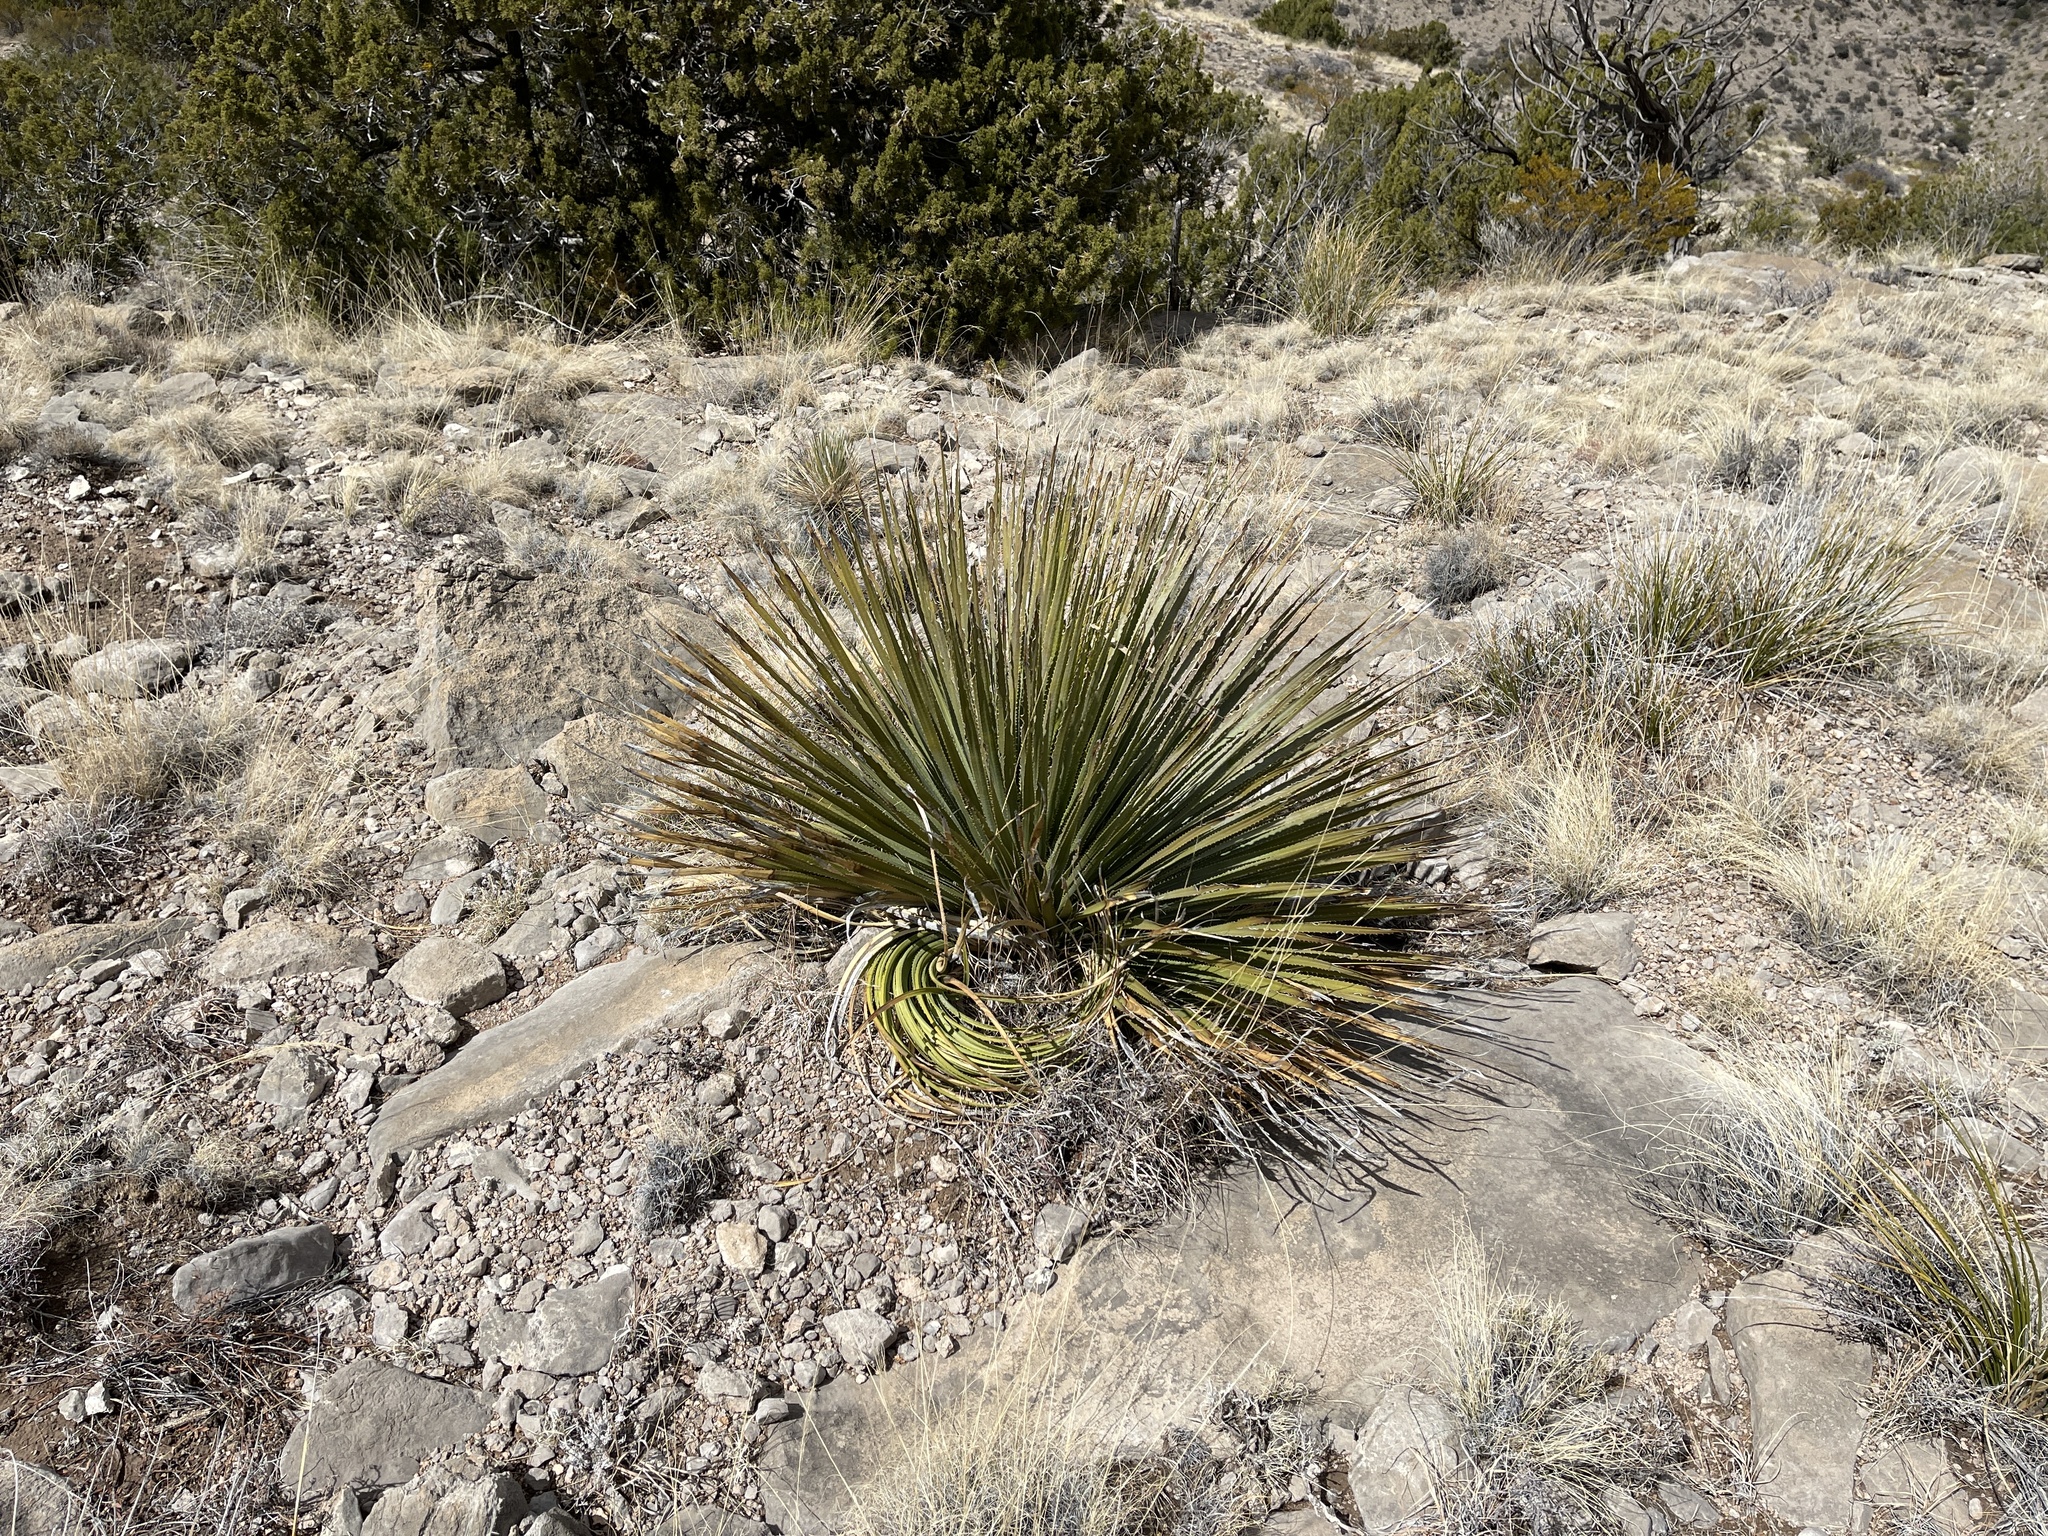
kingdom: Plantae
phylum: Tracheophyta
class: Liliopsida
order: Asparagales
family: Asparagaceae
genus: Dasylirion
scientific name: Dasylirion wheeleri
